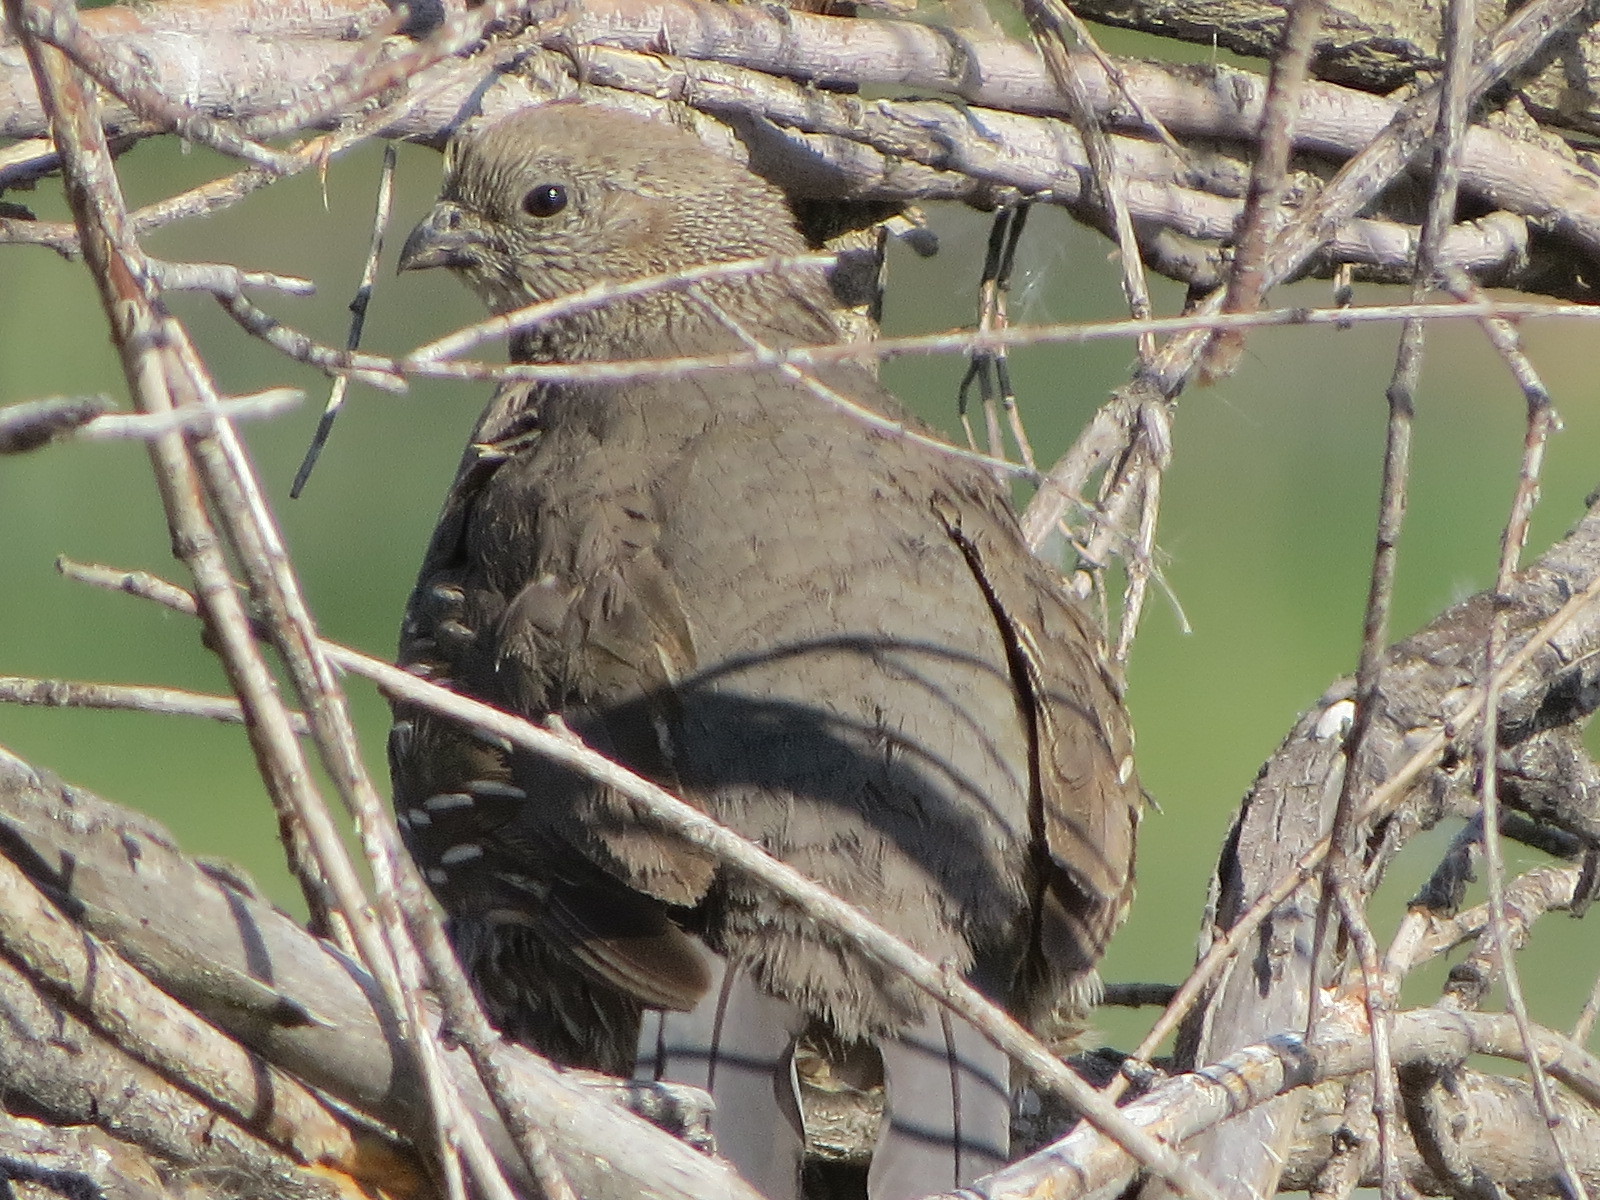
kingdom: Animalia
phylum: Chordata
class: Aves
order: Galliformes
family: Odontophoridae
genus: Callipepla
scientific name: Callipepla californica
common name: California quail
